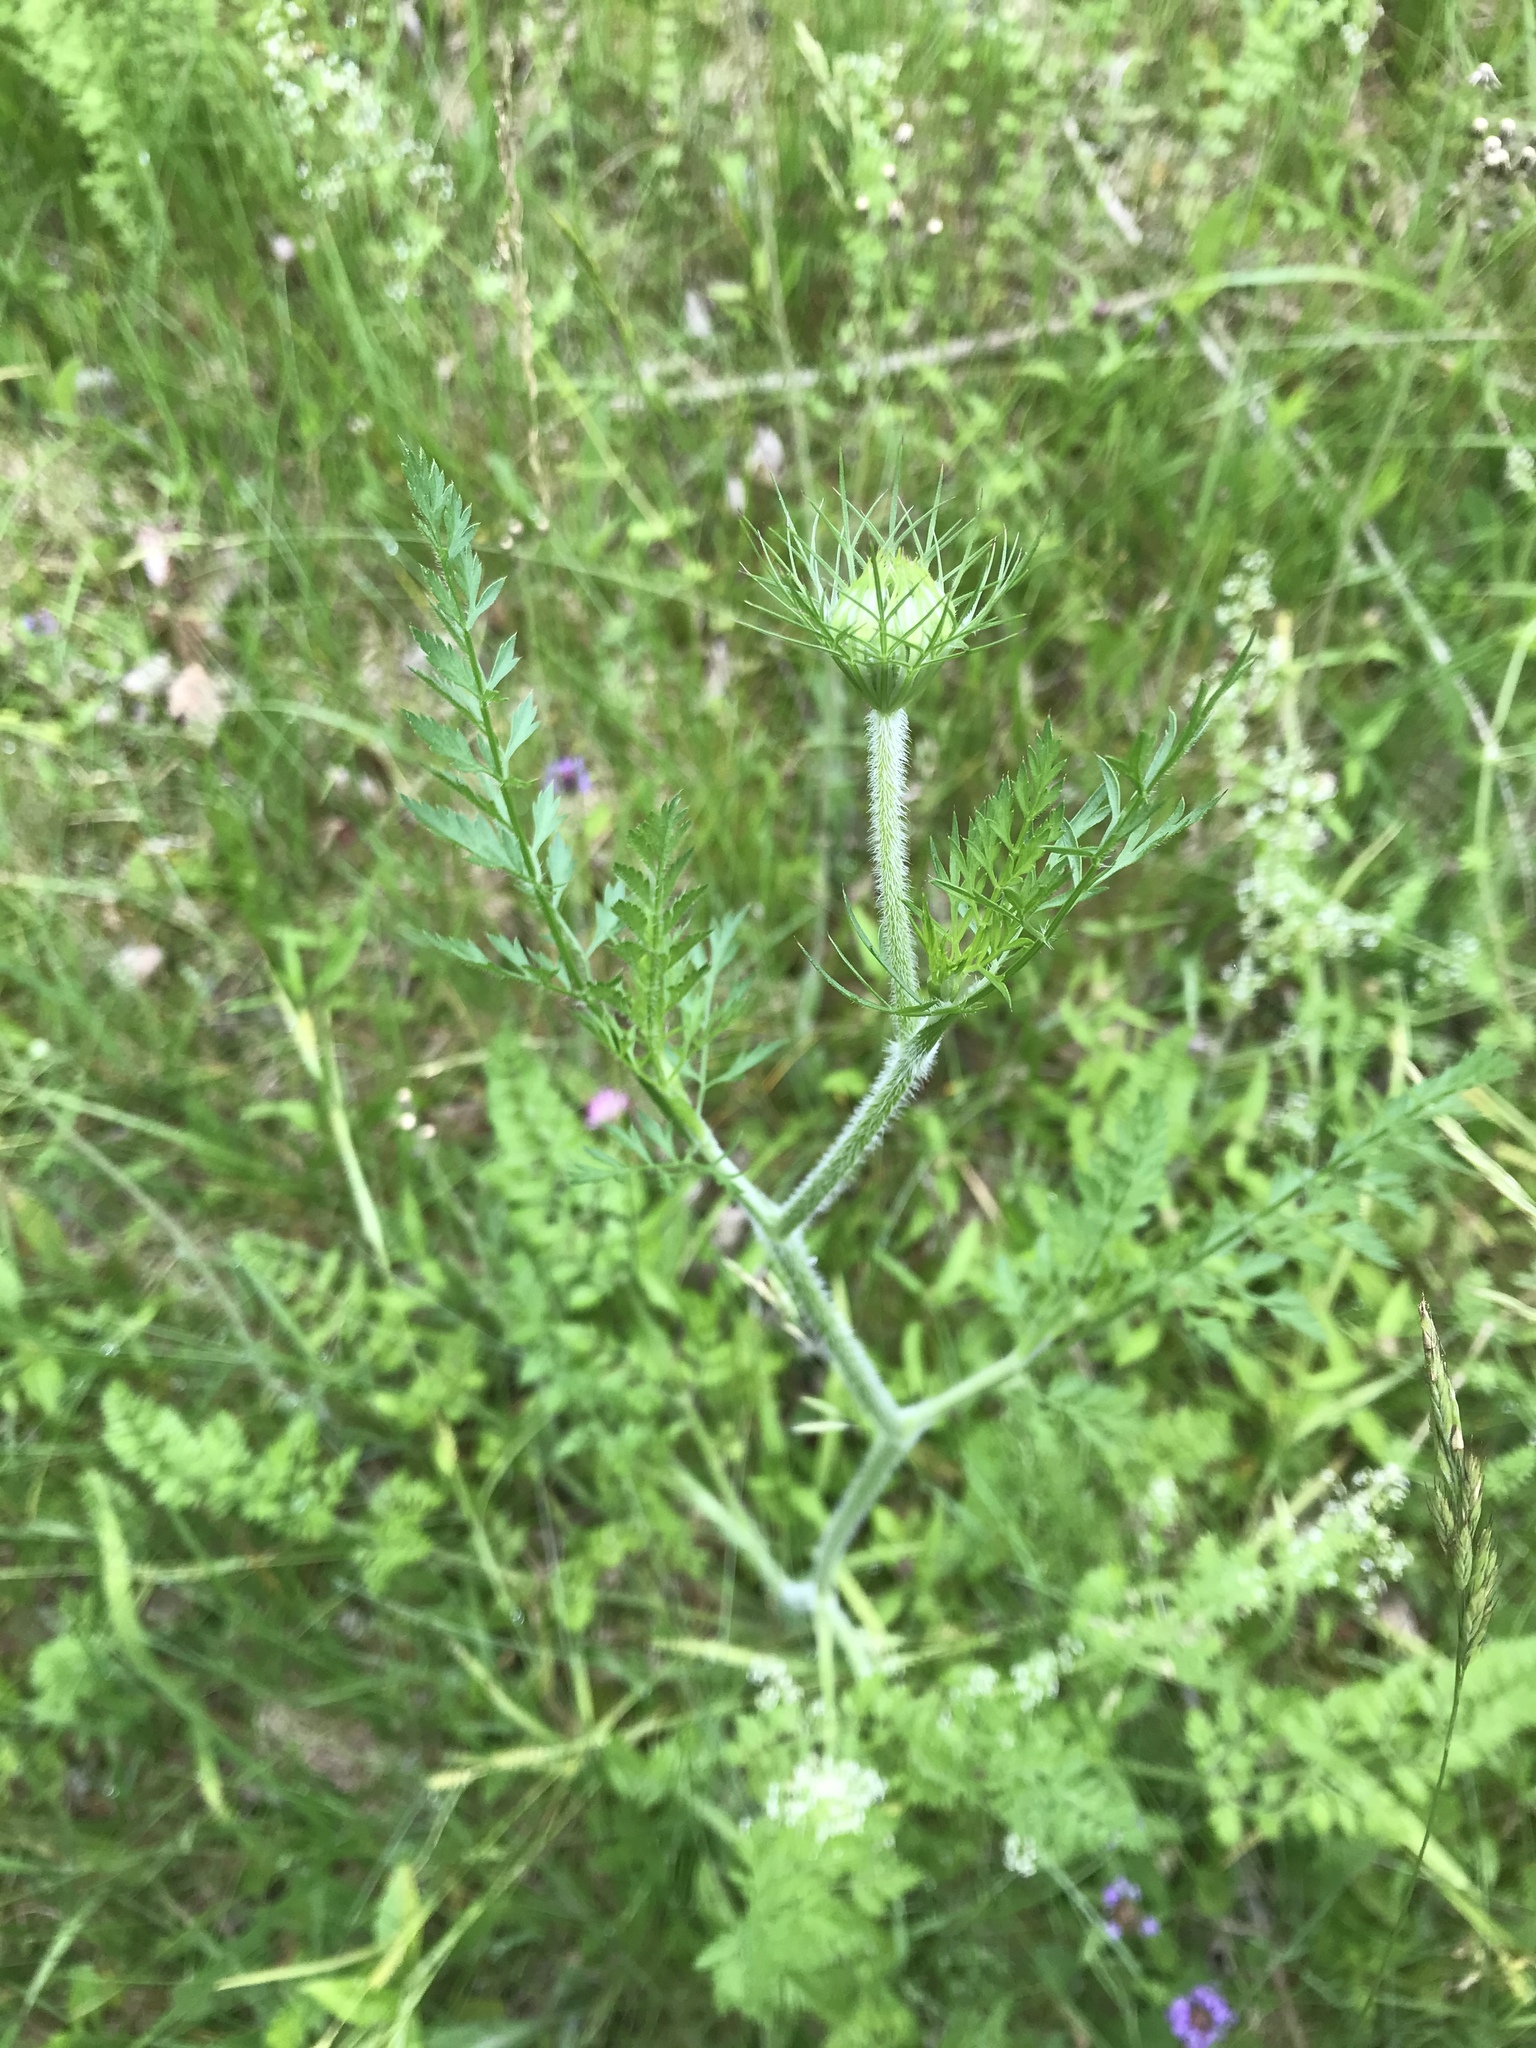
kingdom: Plantae
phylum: Tracheophyta
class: Magnoliopsida
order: Apiales
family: Apiaceae
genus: Daucus
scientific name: Daucus carota
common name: Wild carrot
